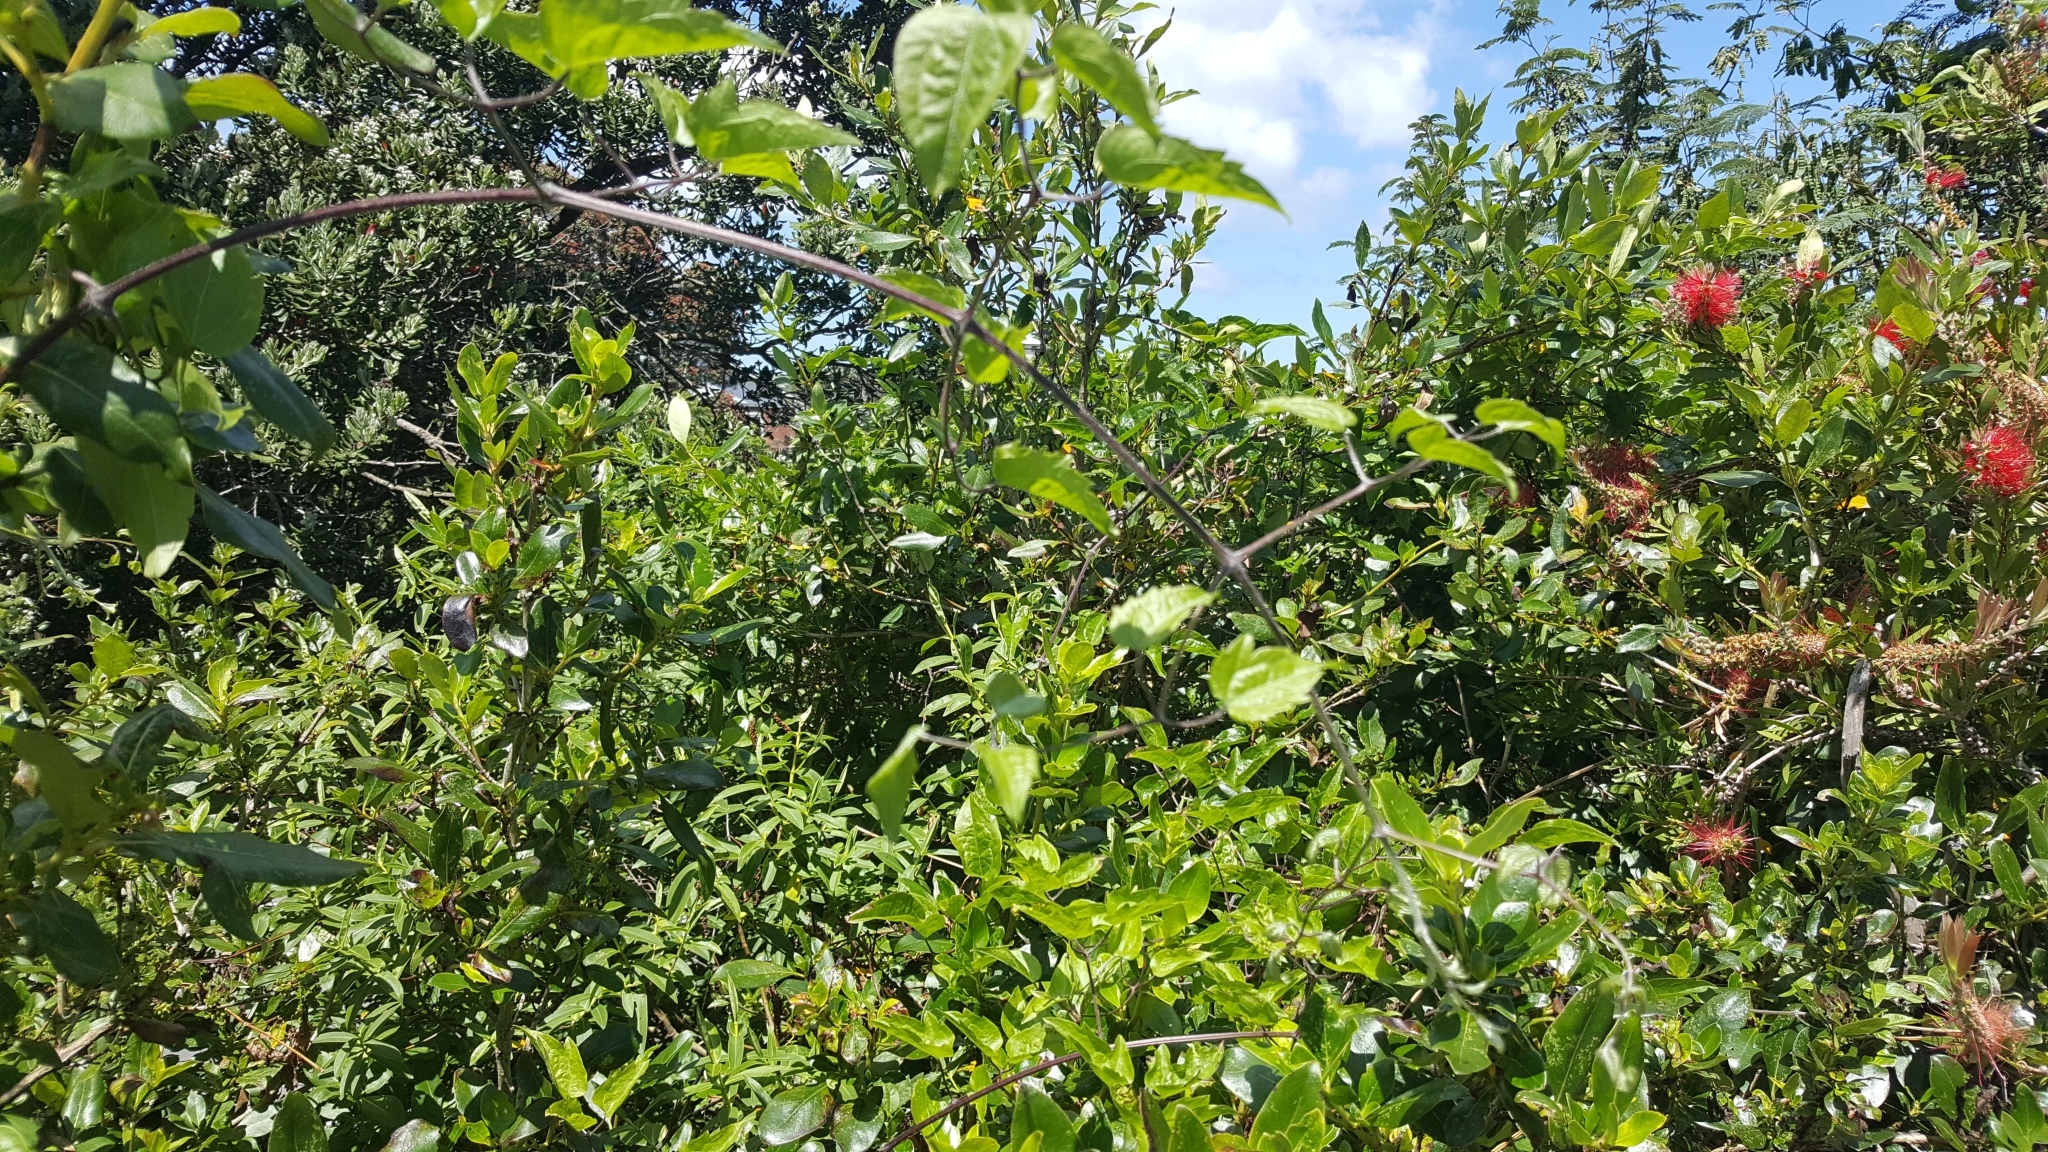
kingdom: Plantae
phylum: Tracheophyta
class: Magnoliopsida
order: Ranunculales
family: Ranunculaceae
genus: Clematis
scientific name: Clematis vitalba
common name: Evergreen clematis
